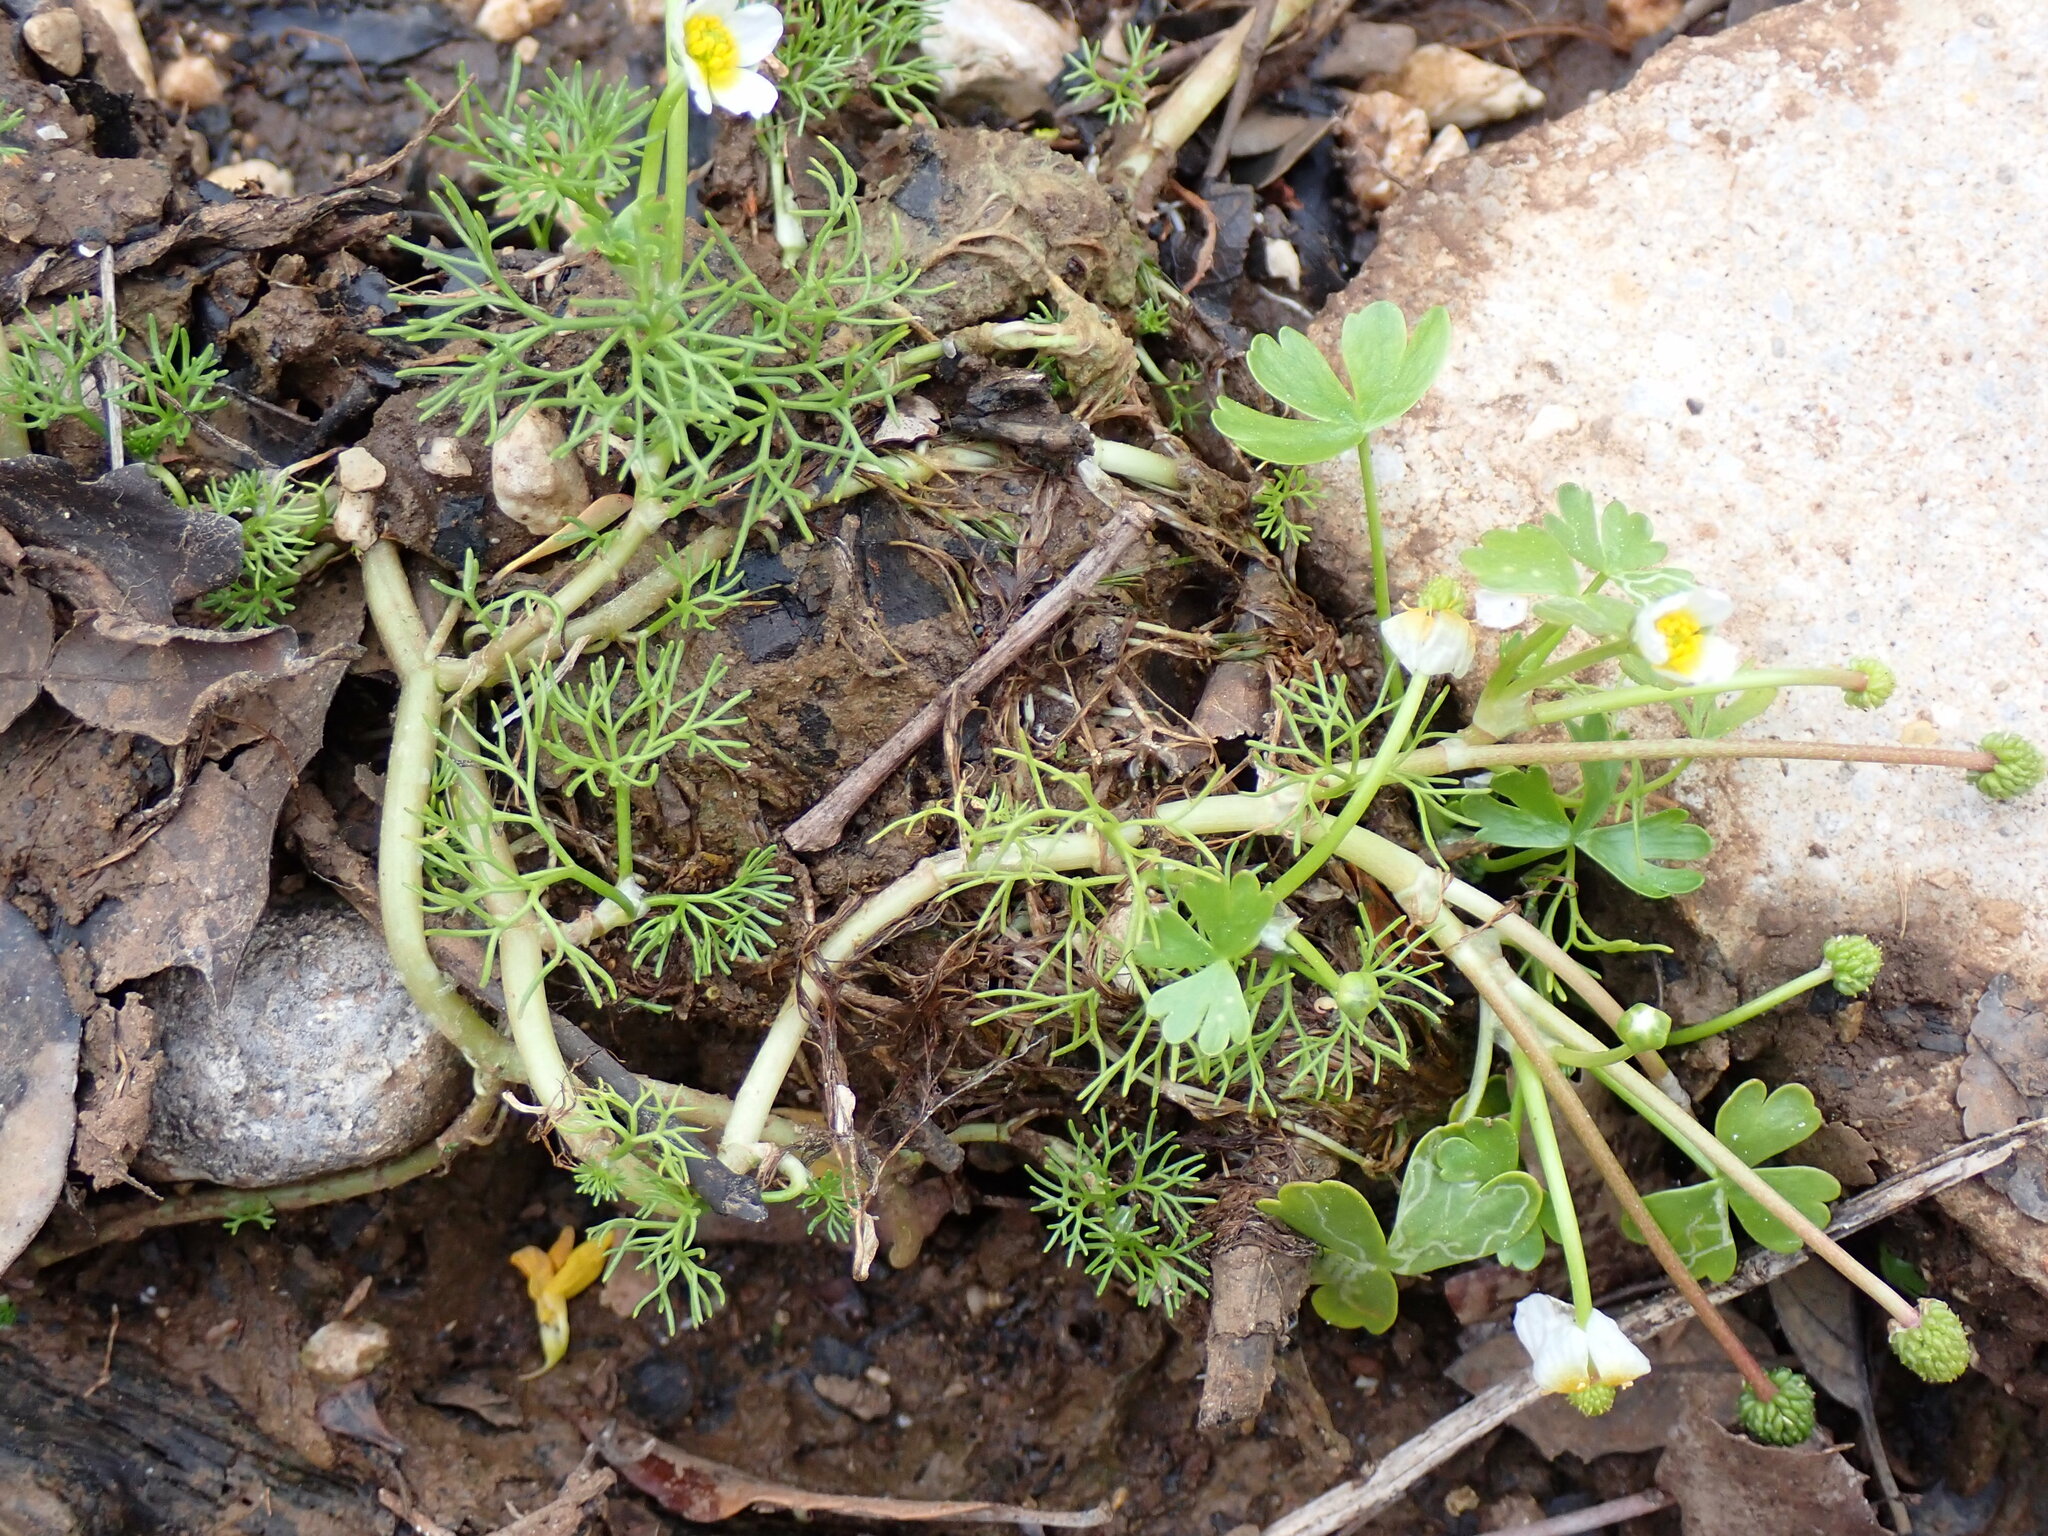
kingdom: Plantae
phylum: Tracheophyta
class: Magnoliopsida
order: Ranunculales
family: Ranunculaceae
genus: Ranunculus
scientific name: Ranunculus peltatus
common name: Pond water-crowfoot
